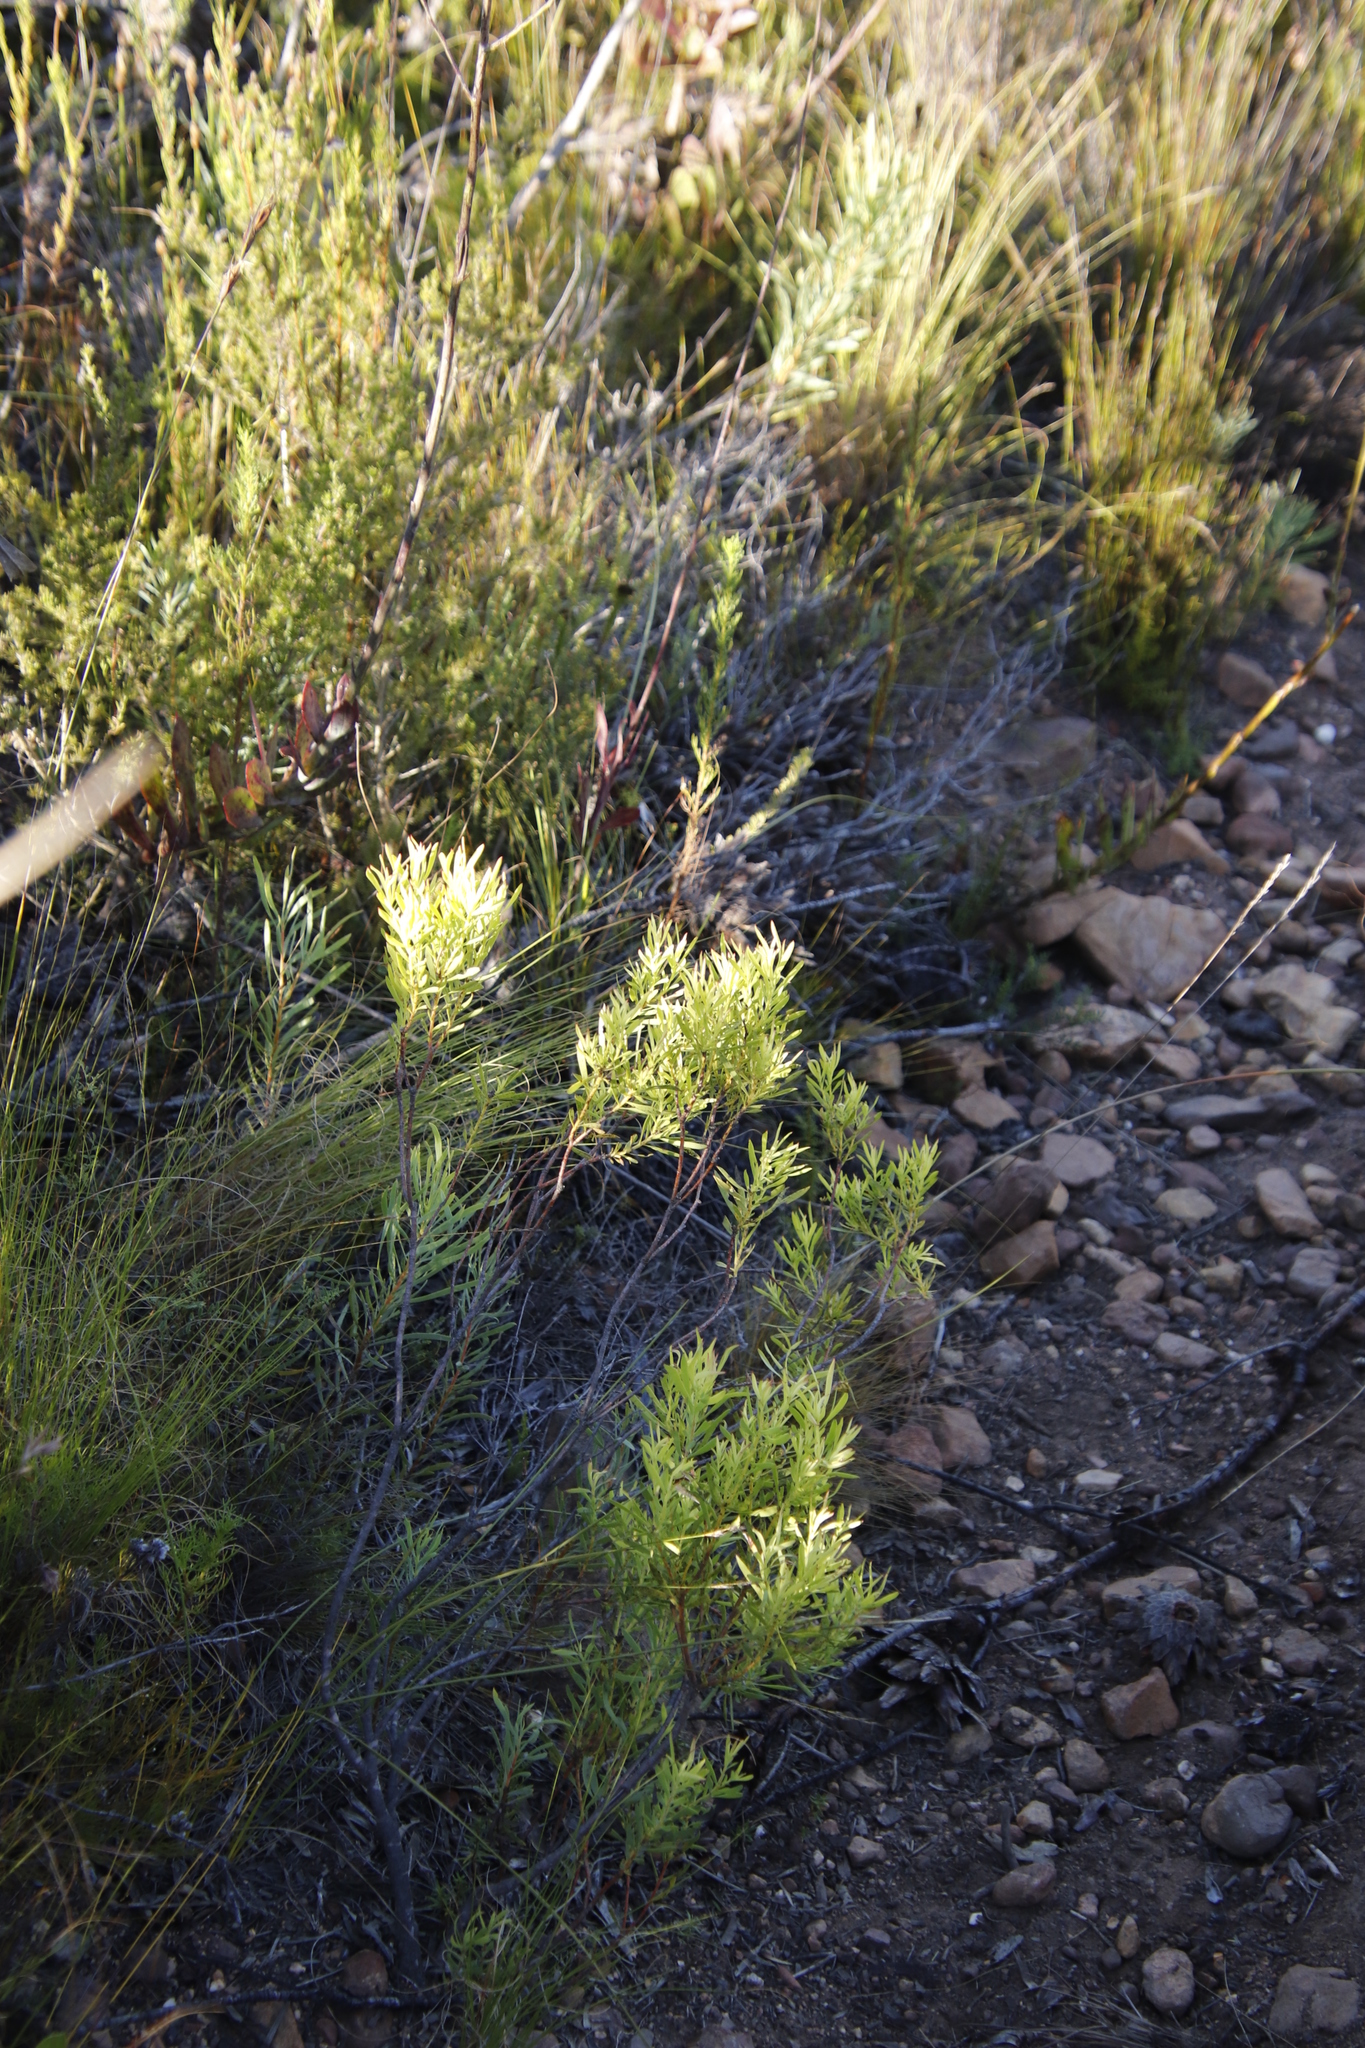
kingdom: Plantae
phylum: Tracheophyta
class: Magnoliopsida
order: Proteales
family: Proteaceae
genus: Leucadendron
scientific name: Leucadendron salignum
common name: Common sunshine conebush
